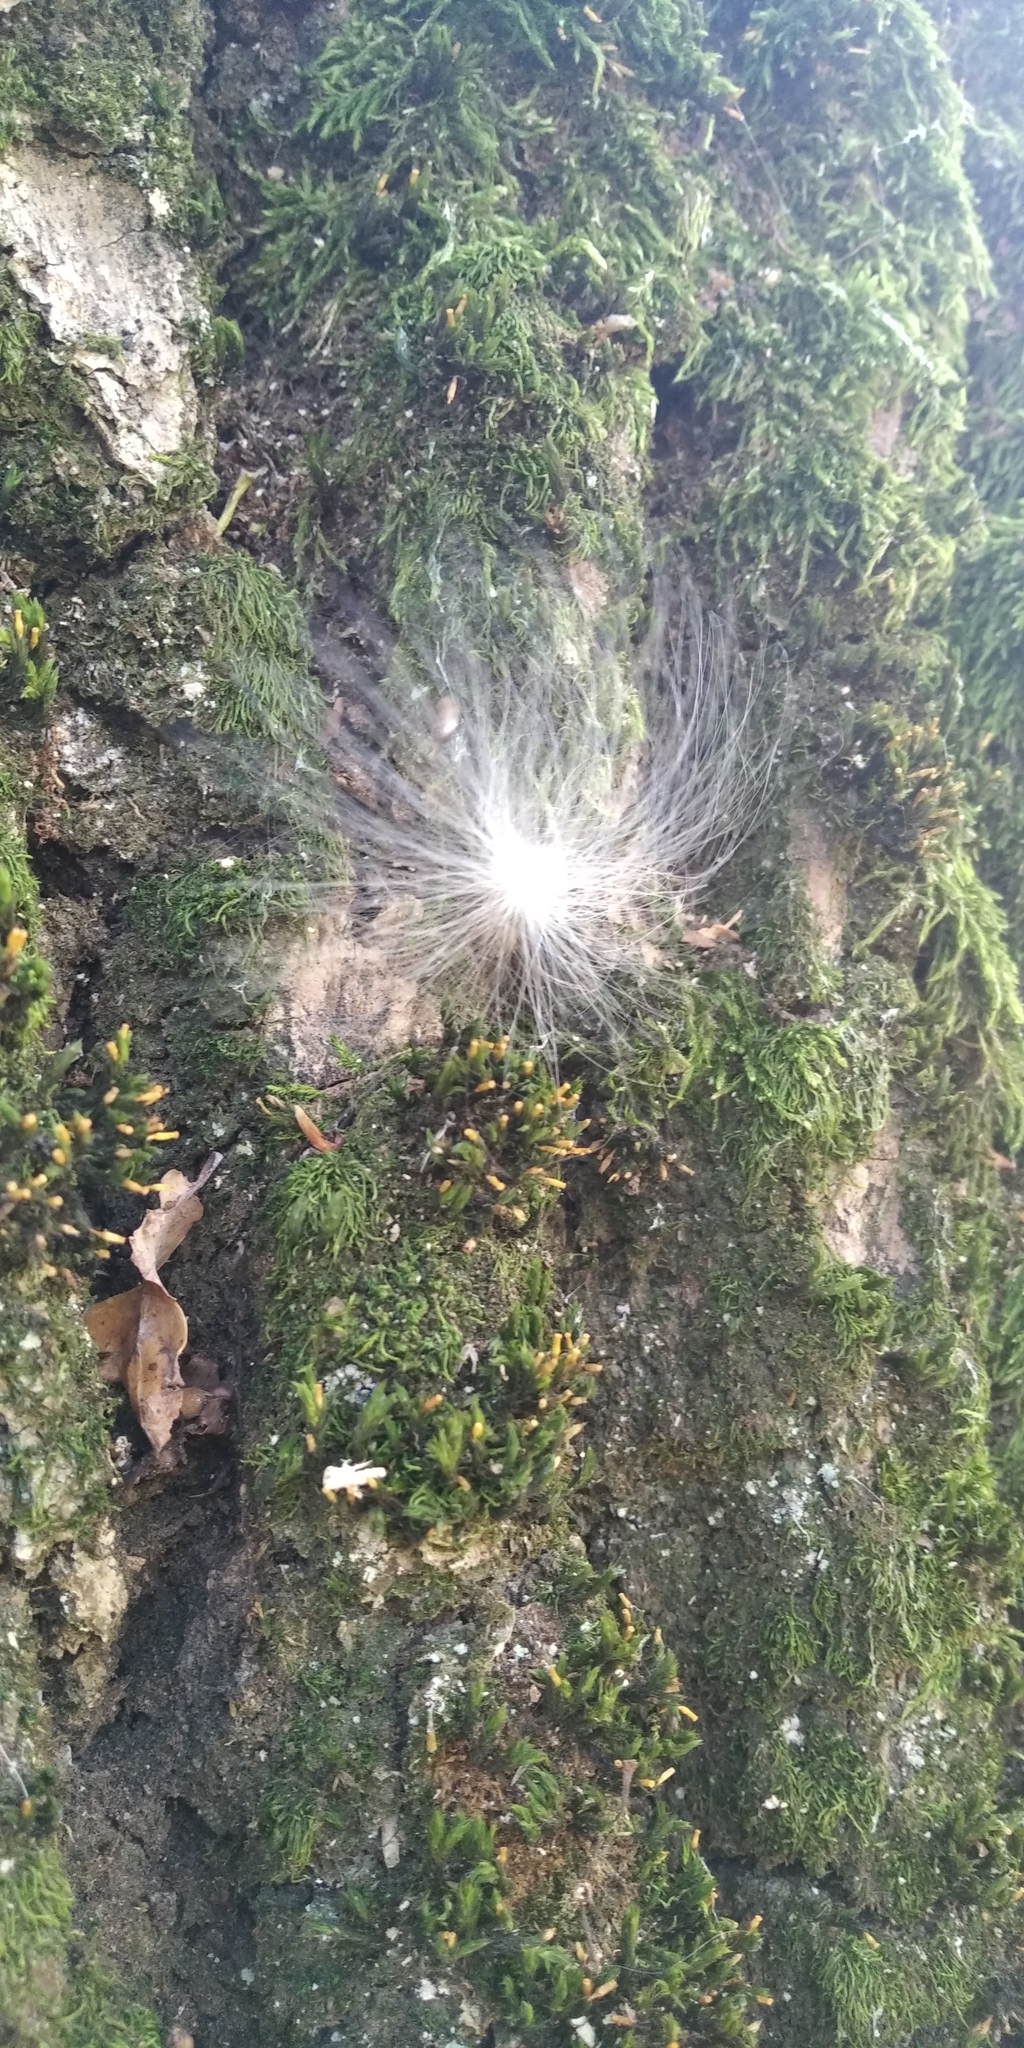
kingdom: Plantae
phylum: Tracheophyta
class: Magnoliopsida
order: Gentianales
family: Apocynaceae
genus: Asclepias
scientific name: Asclepias syriaca
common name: Common milkweed
